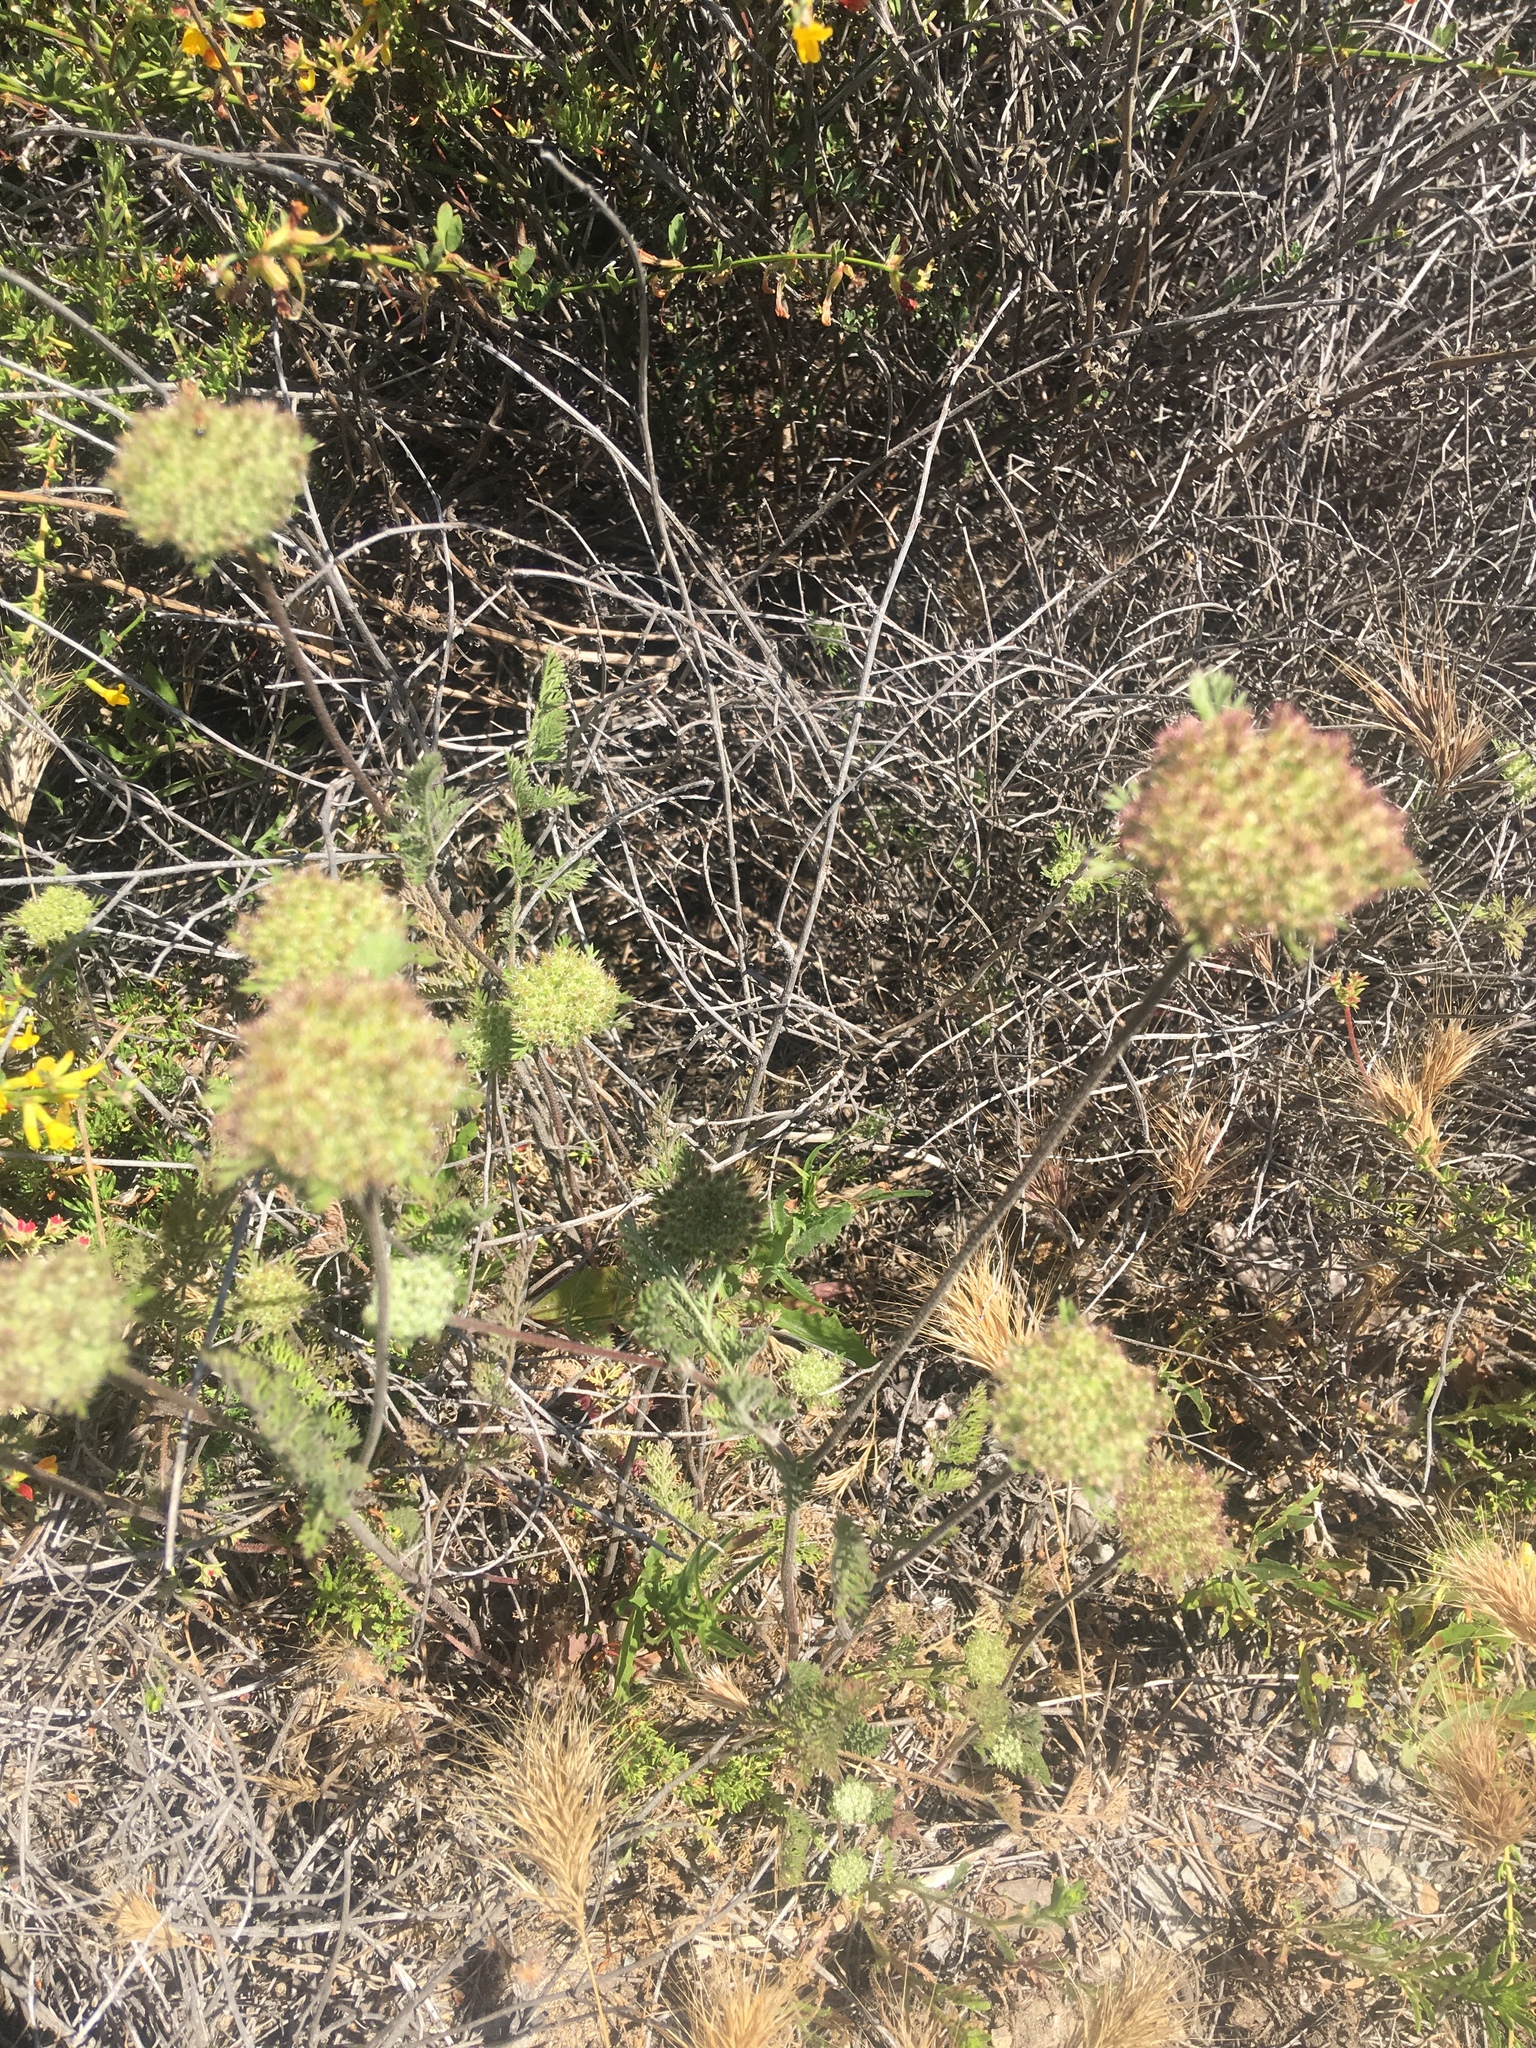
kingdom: Plantae
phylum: Tracheophyta
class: Magnoliopsida
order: Apiales
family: Apiaceae
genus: Daucus
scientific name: Daucus pusillus
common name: Southwest wild carrot
